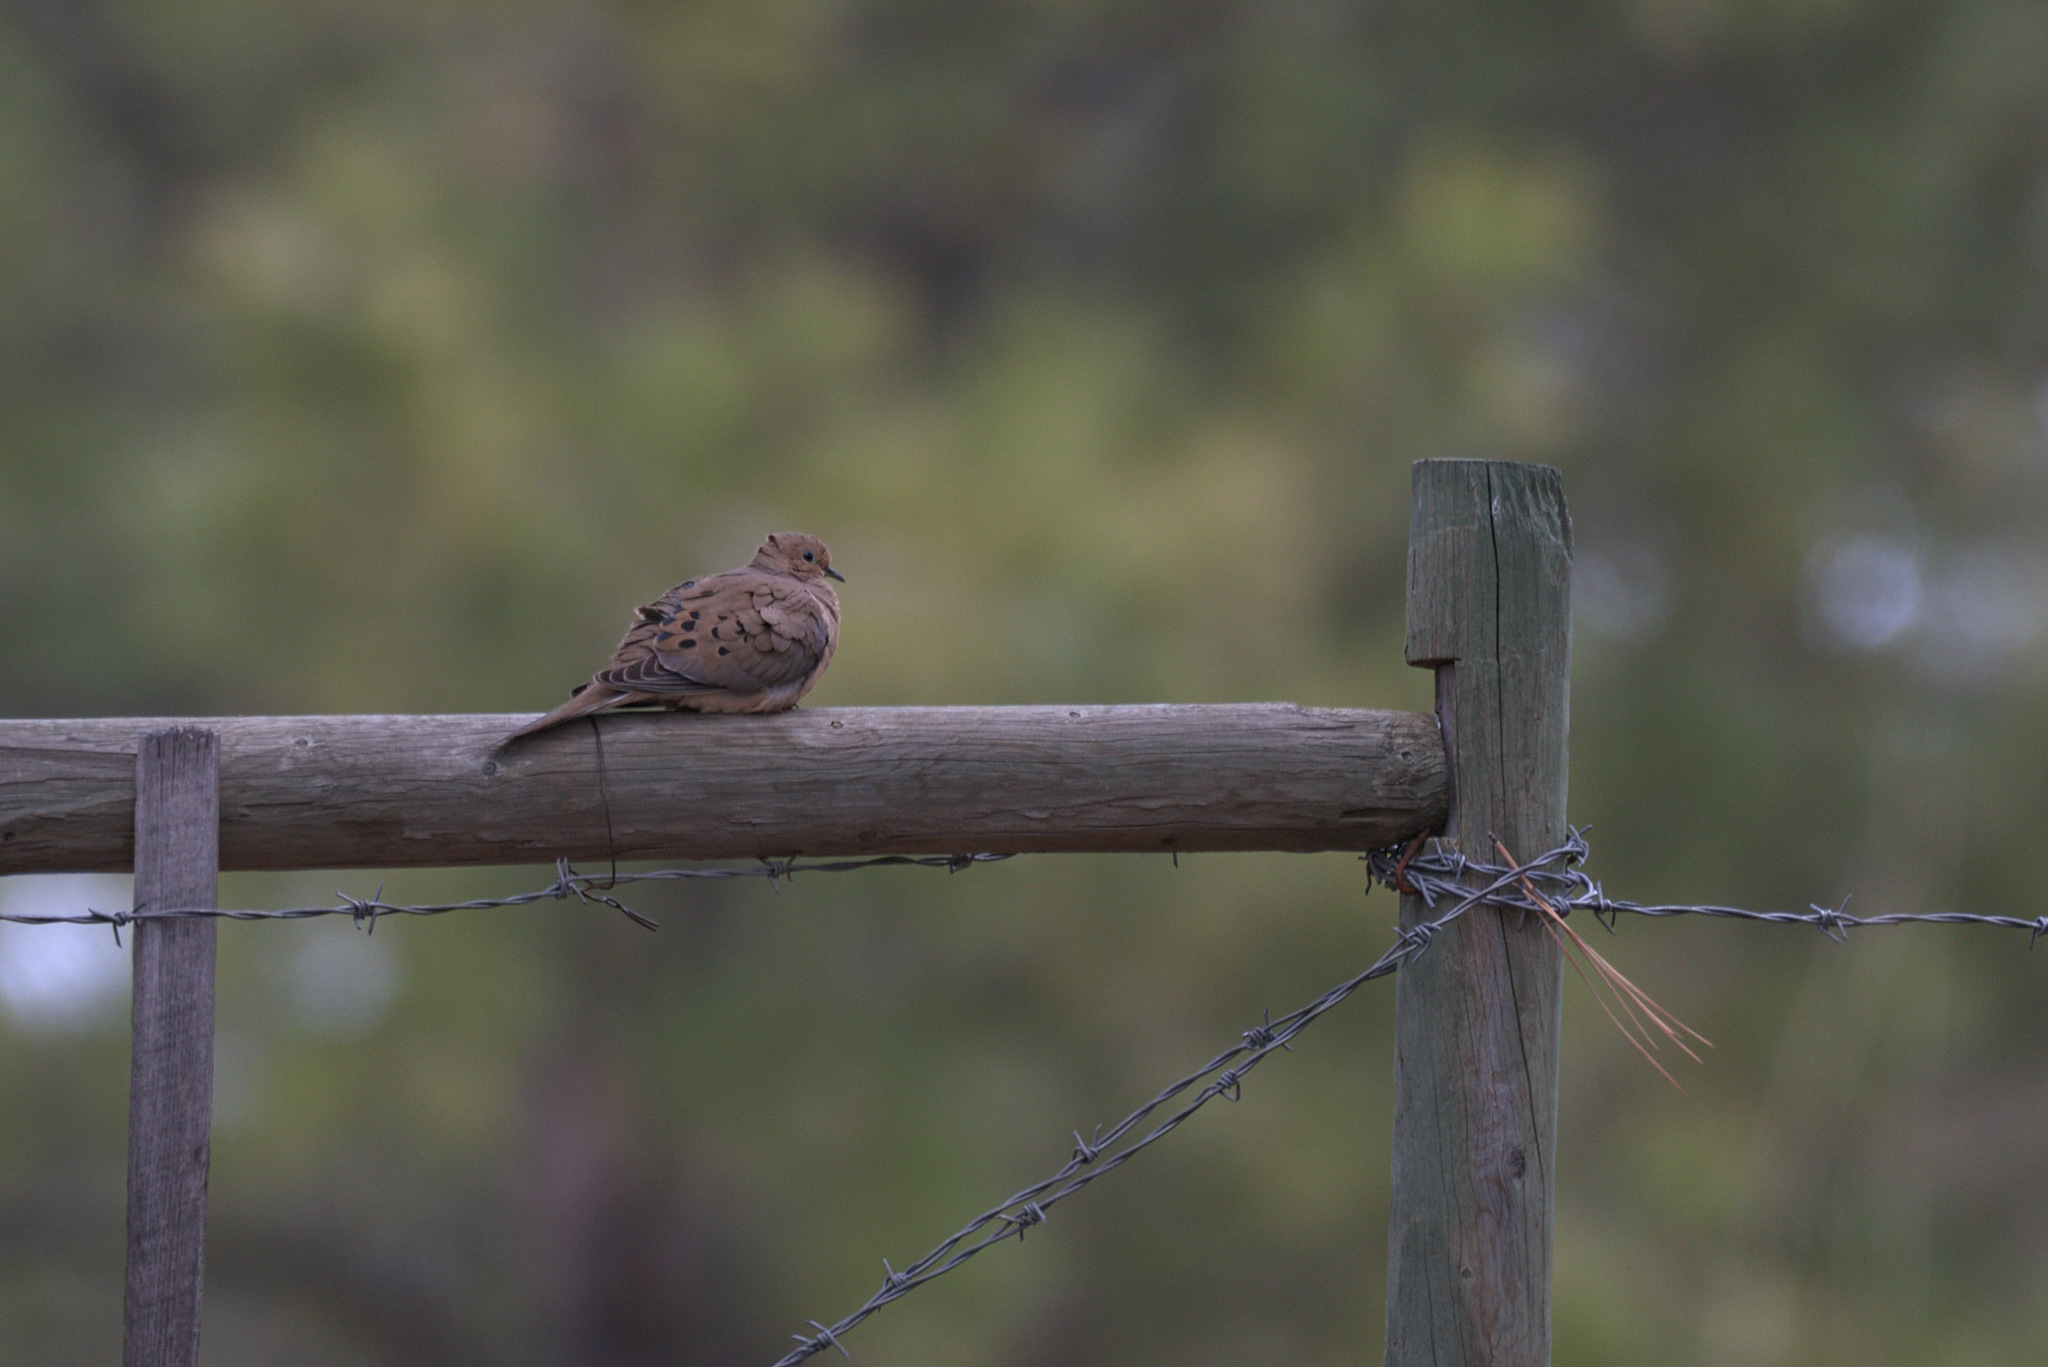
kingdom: Animalia
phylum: Chordata
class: Aves
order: Columbiformes
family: Columbidae
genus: Zenaida
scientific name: Zenaida macroura
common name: Mourning dove
